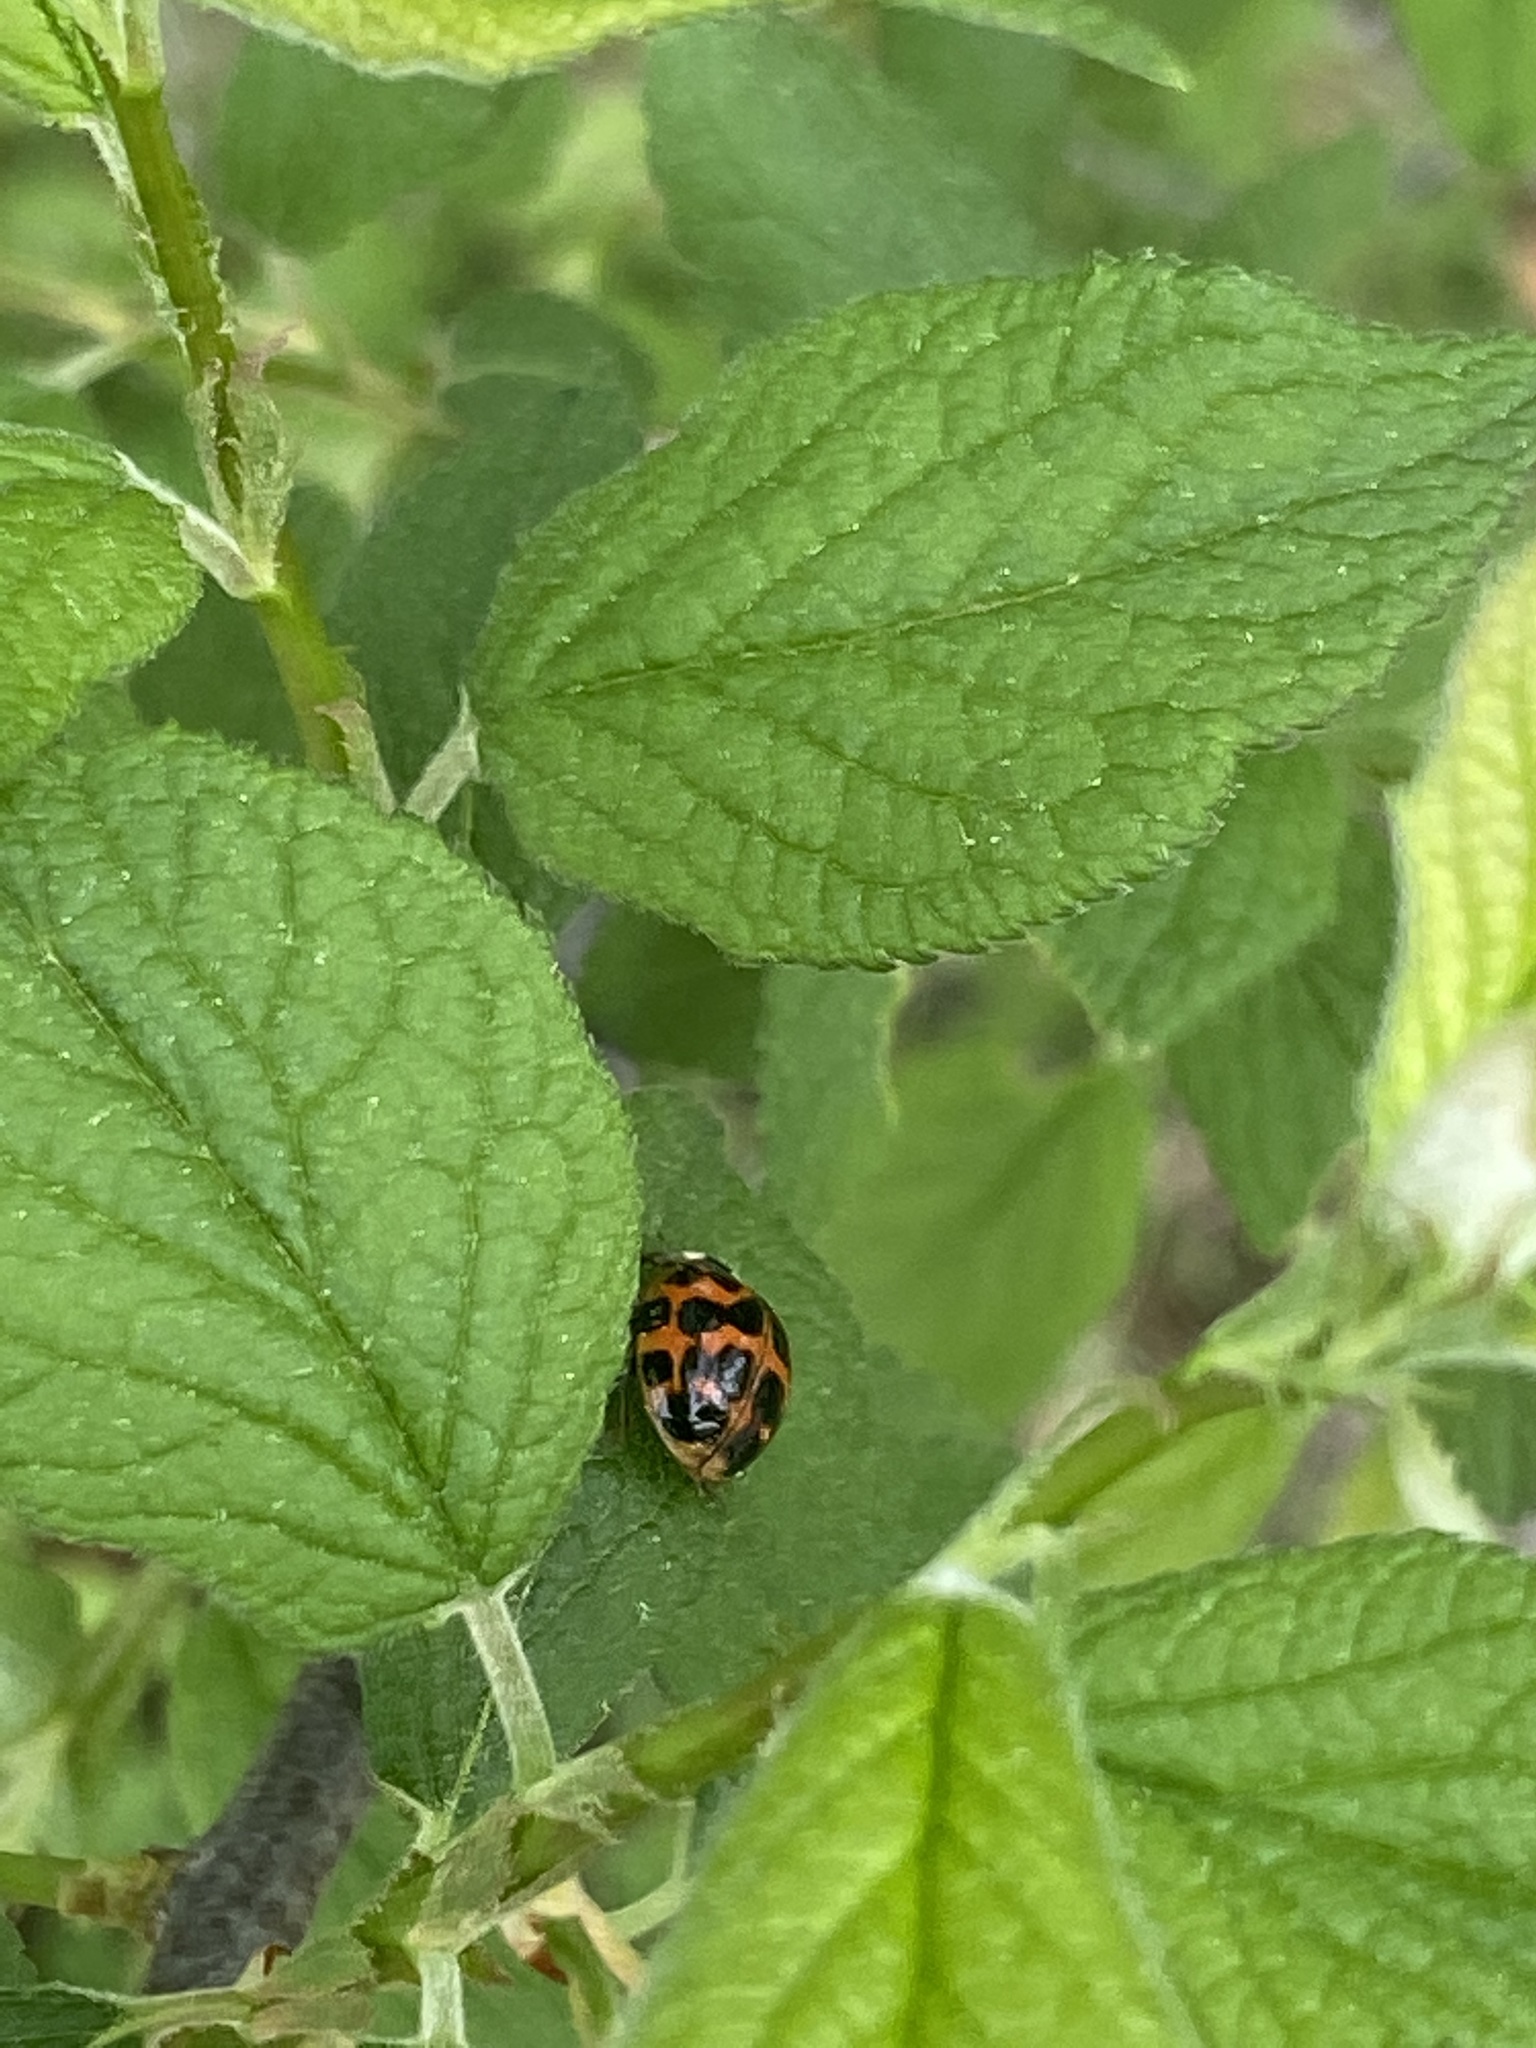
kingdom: Animalia
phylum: Arthropoda
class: Insecta
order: Coleoptera
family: Coccinellidae
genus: Harmonia
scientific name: Harmonia axyridis
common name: Harlequin ladybird
